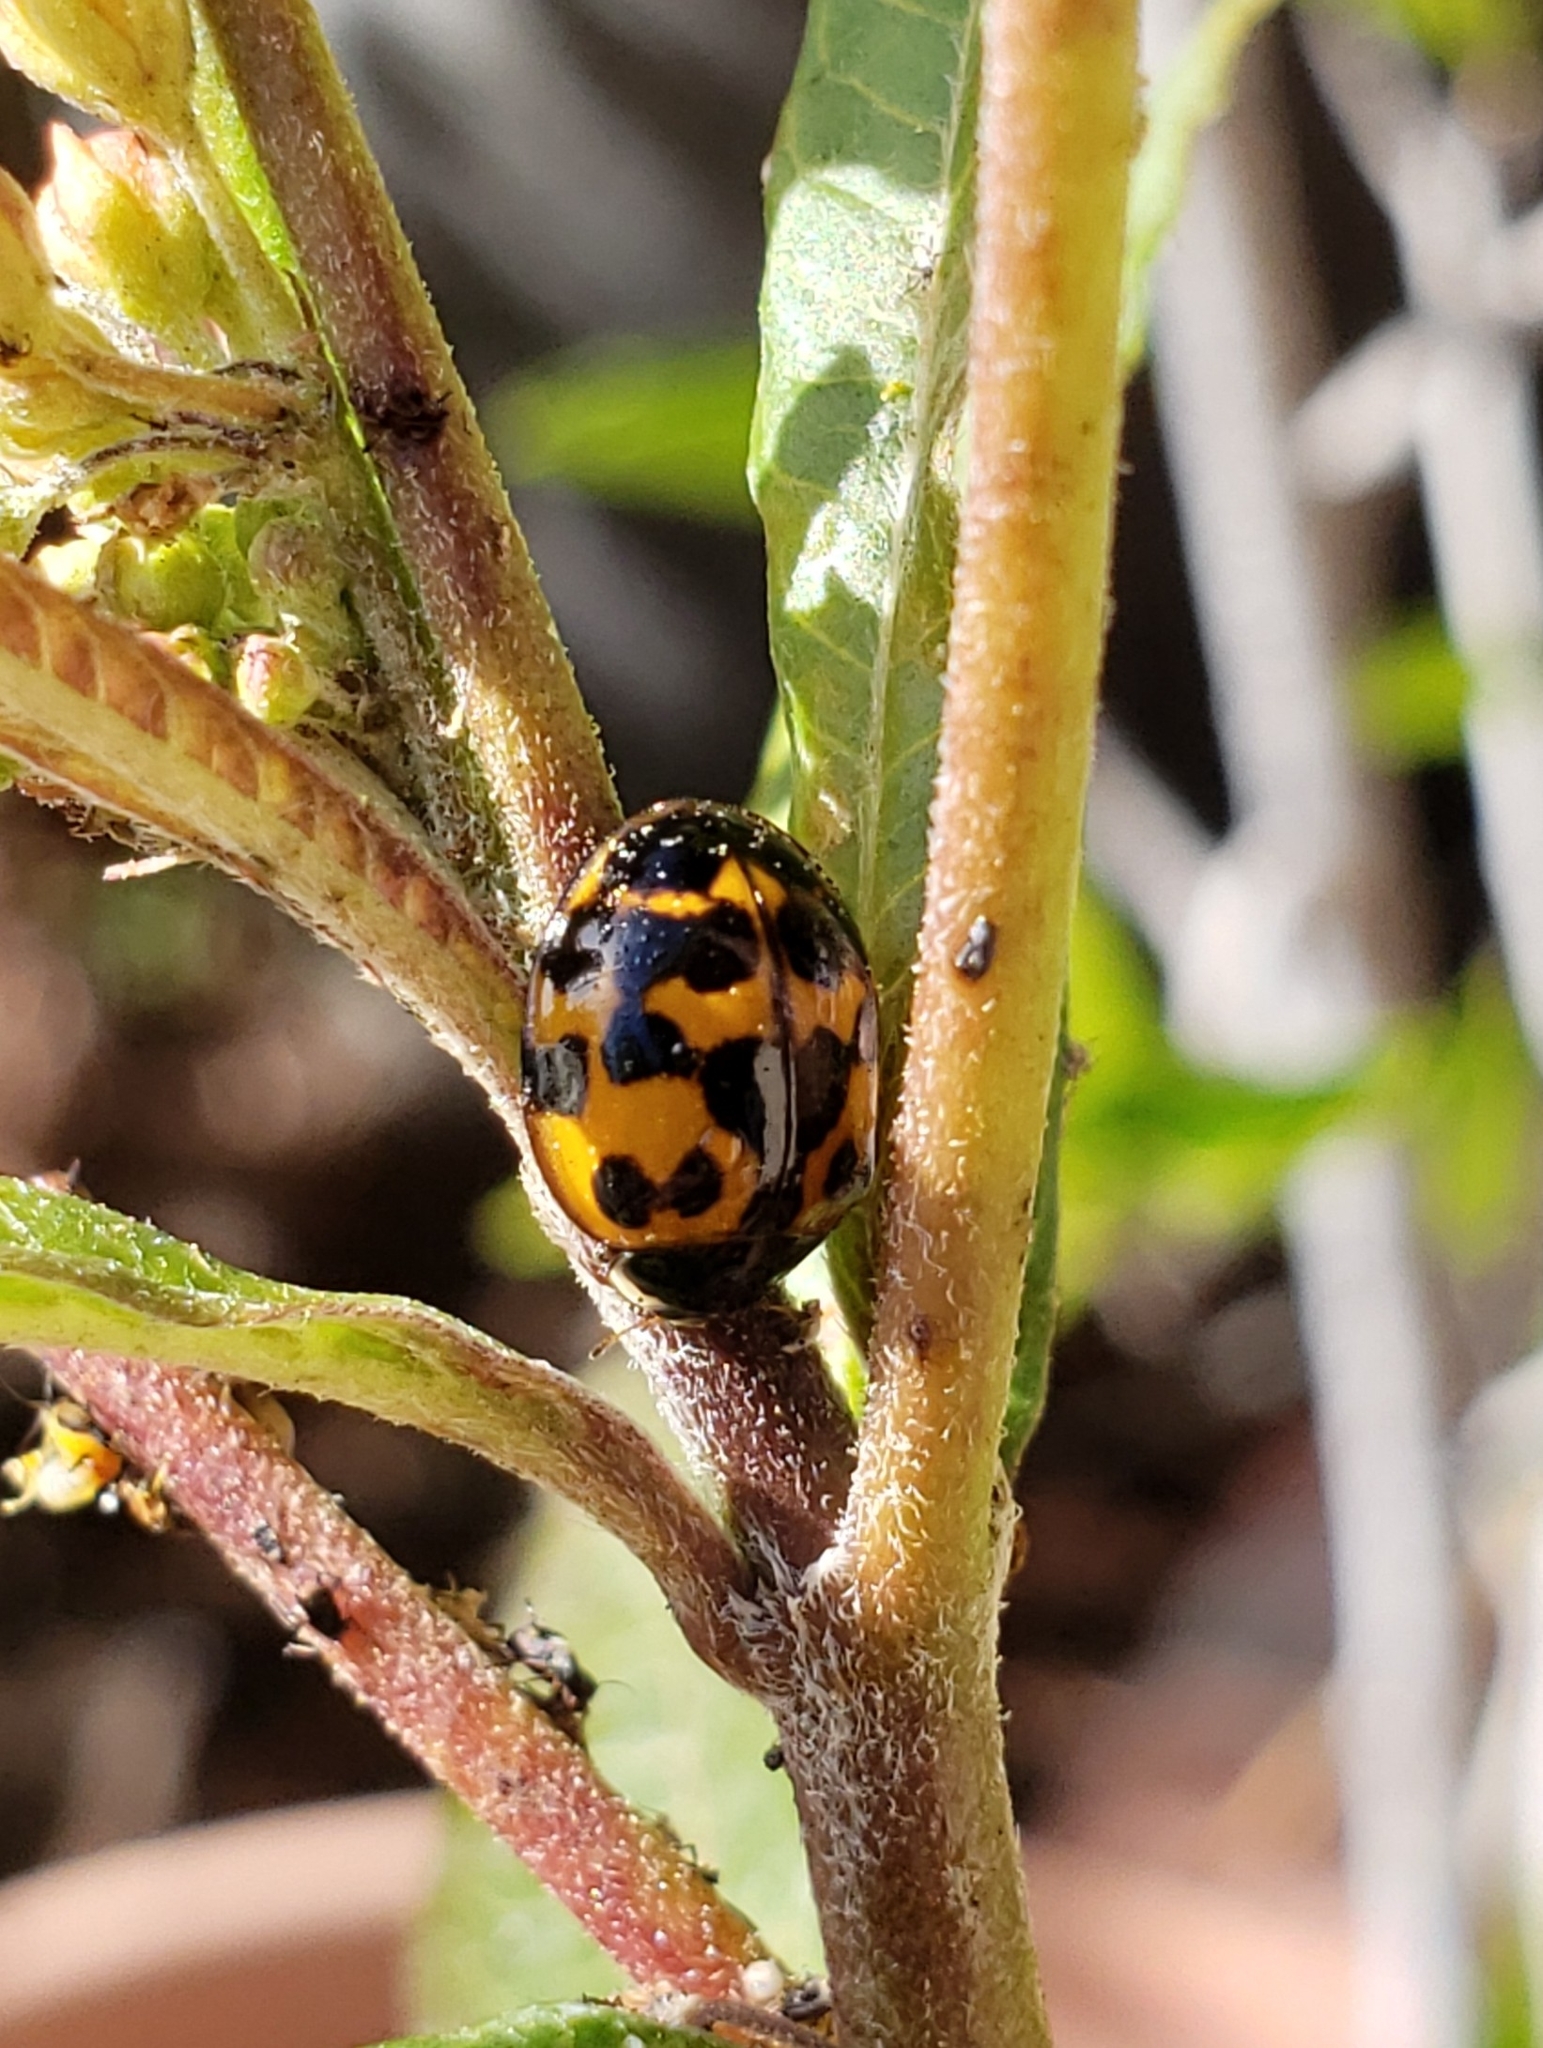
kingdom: Animalia
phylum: Arthropoda
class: Insecta
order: Coleoptera
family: Coccinellidae
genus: Harmonia
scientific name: Harmonia axyridis
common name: Harlequin ladybird
